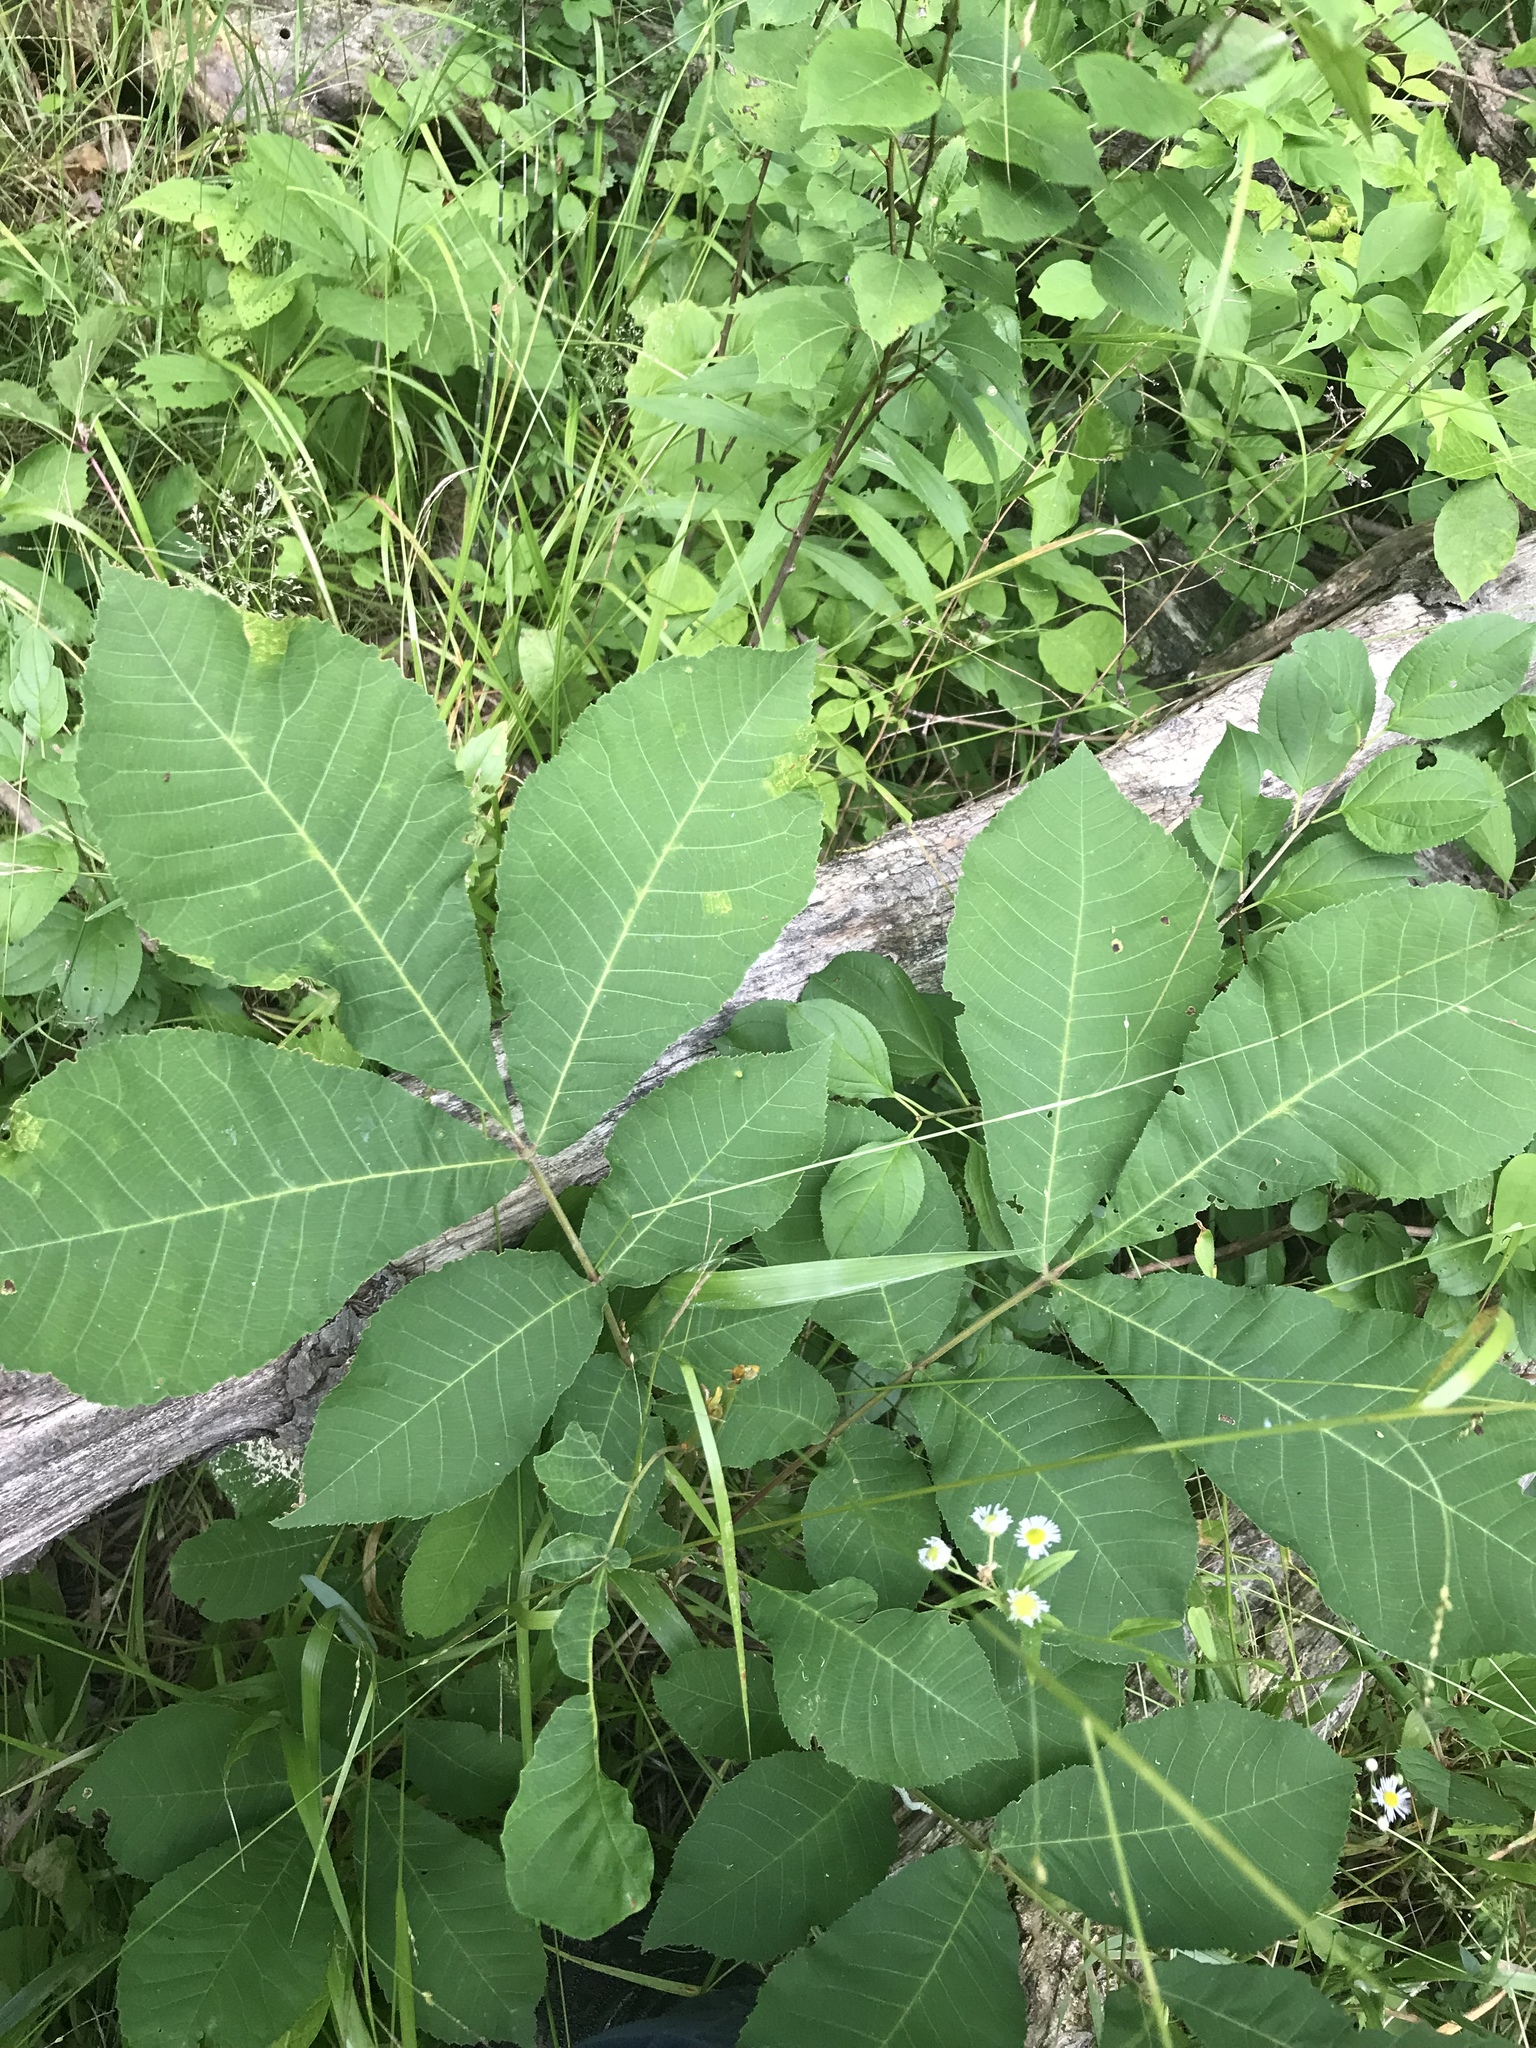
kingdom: Plantae
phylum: Tracheophyta
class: Magnoliopsida
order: Fagales
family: Juglandaceae
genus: Carya
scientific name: Carya cordiformis
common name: Bitternut hickory
